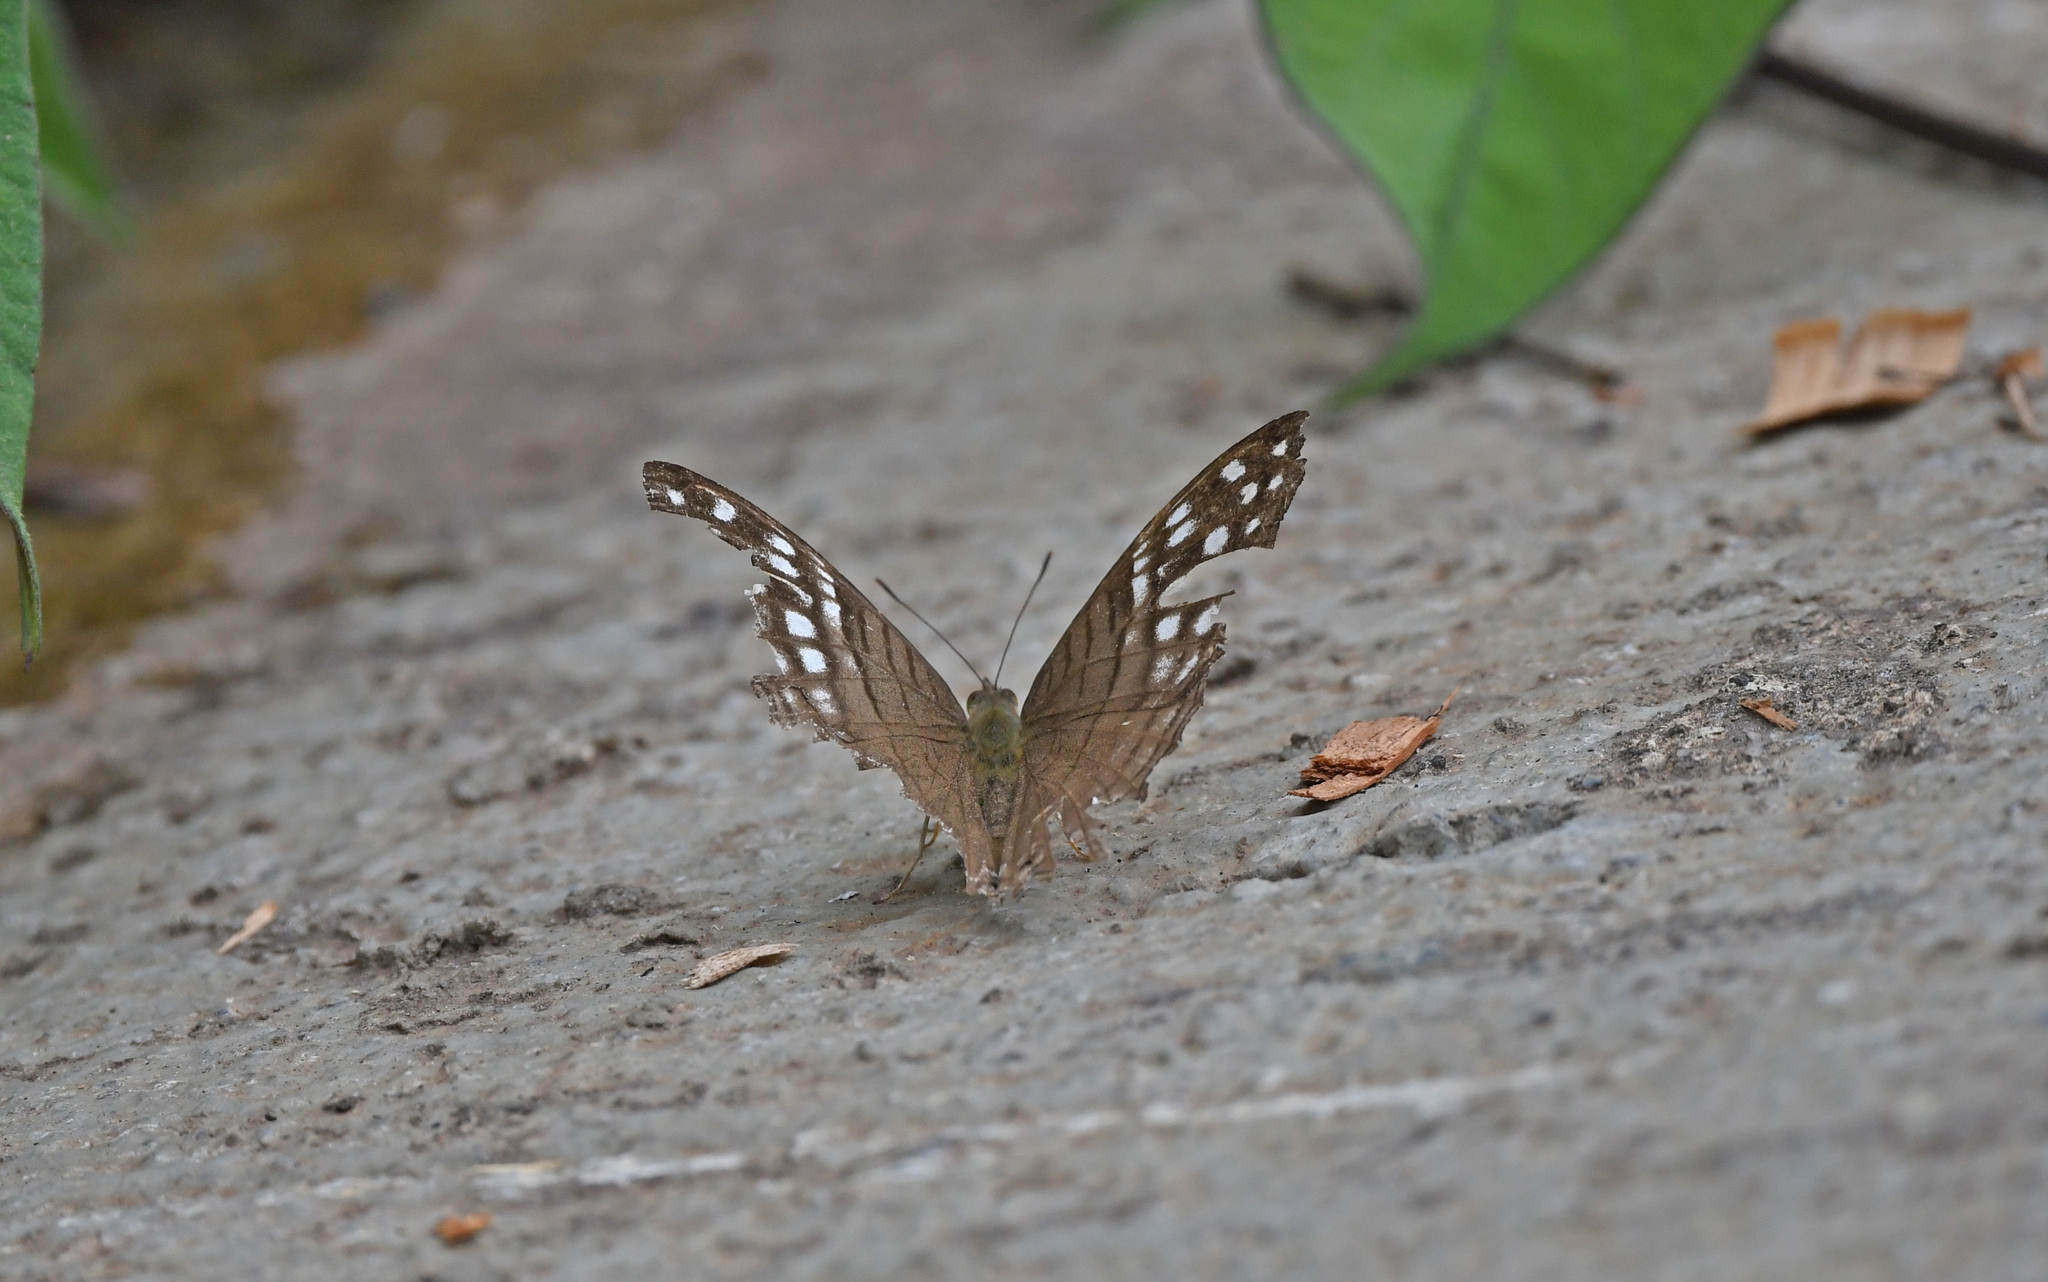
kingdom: Animalia
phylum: Arthropoda
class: Insecta
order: Lepidoptera
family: Nymphalidae
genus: Marpesia
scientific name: Marpesia merops
